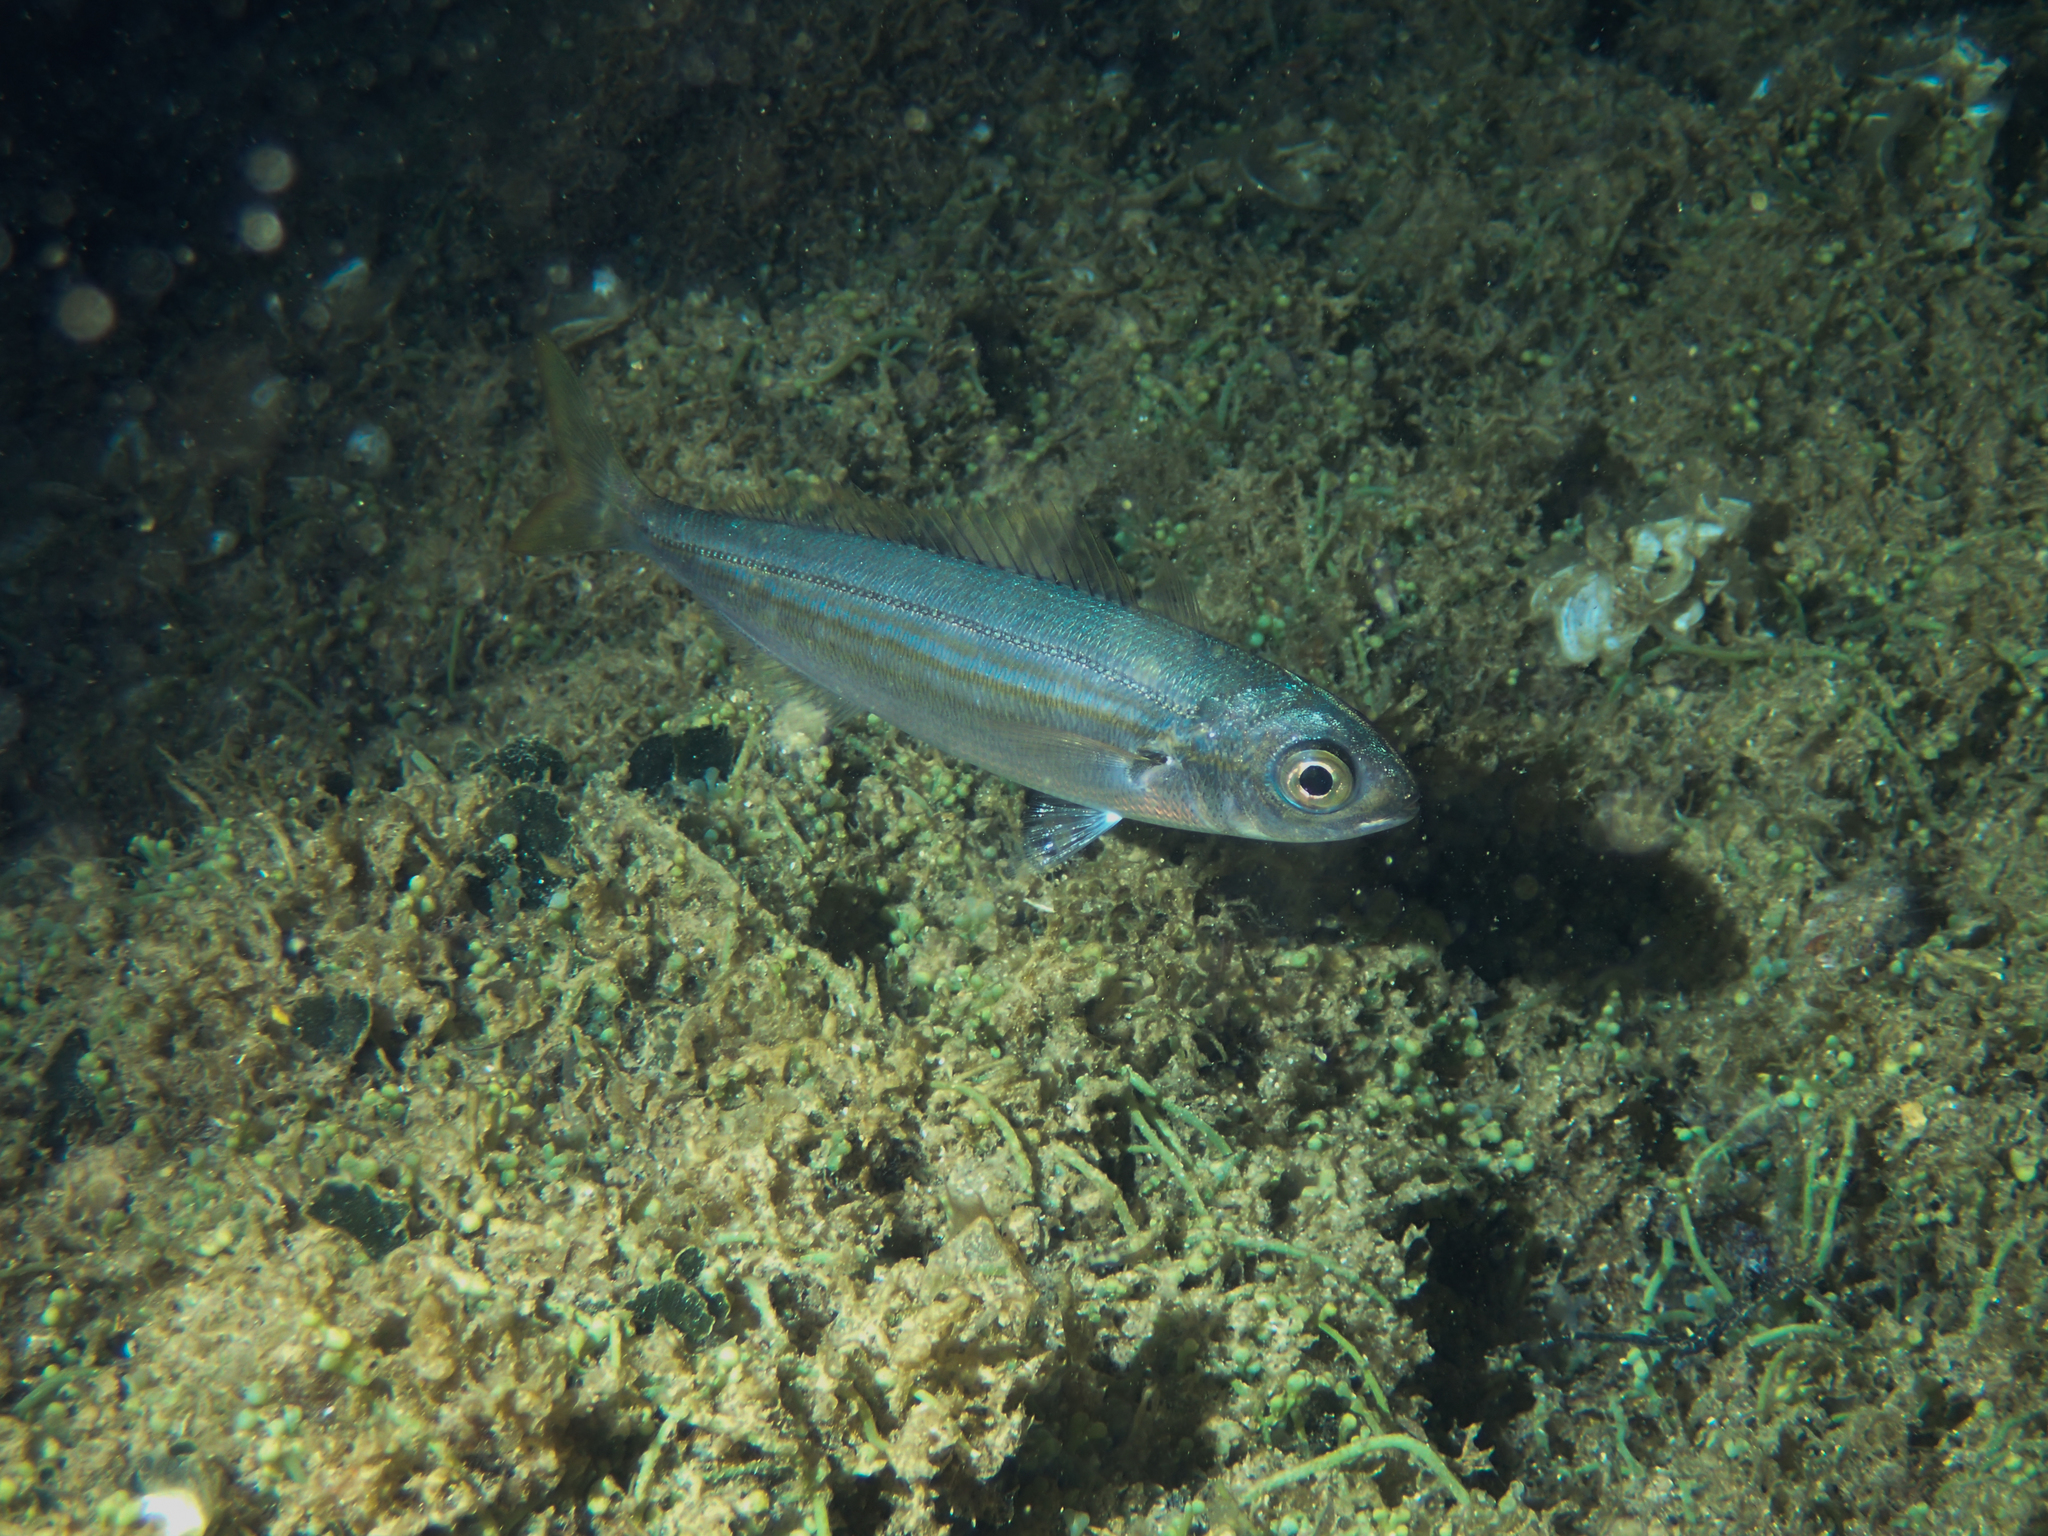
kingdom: Animalia
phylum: Chordata
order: Perciformes
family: Sparidae
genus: Boops
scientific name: Boops boops
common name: Bogue
